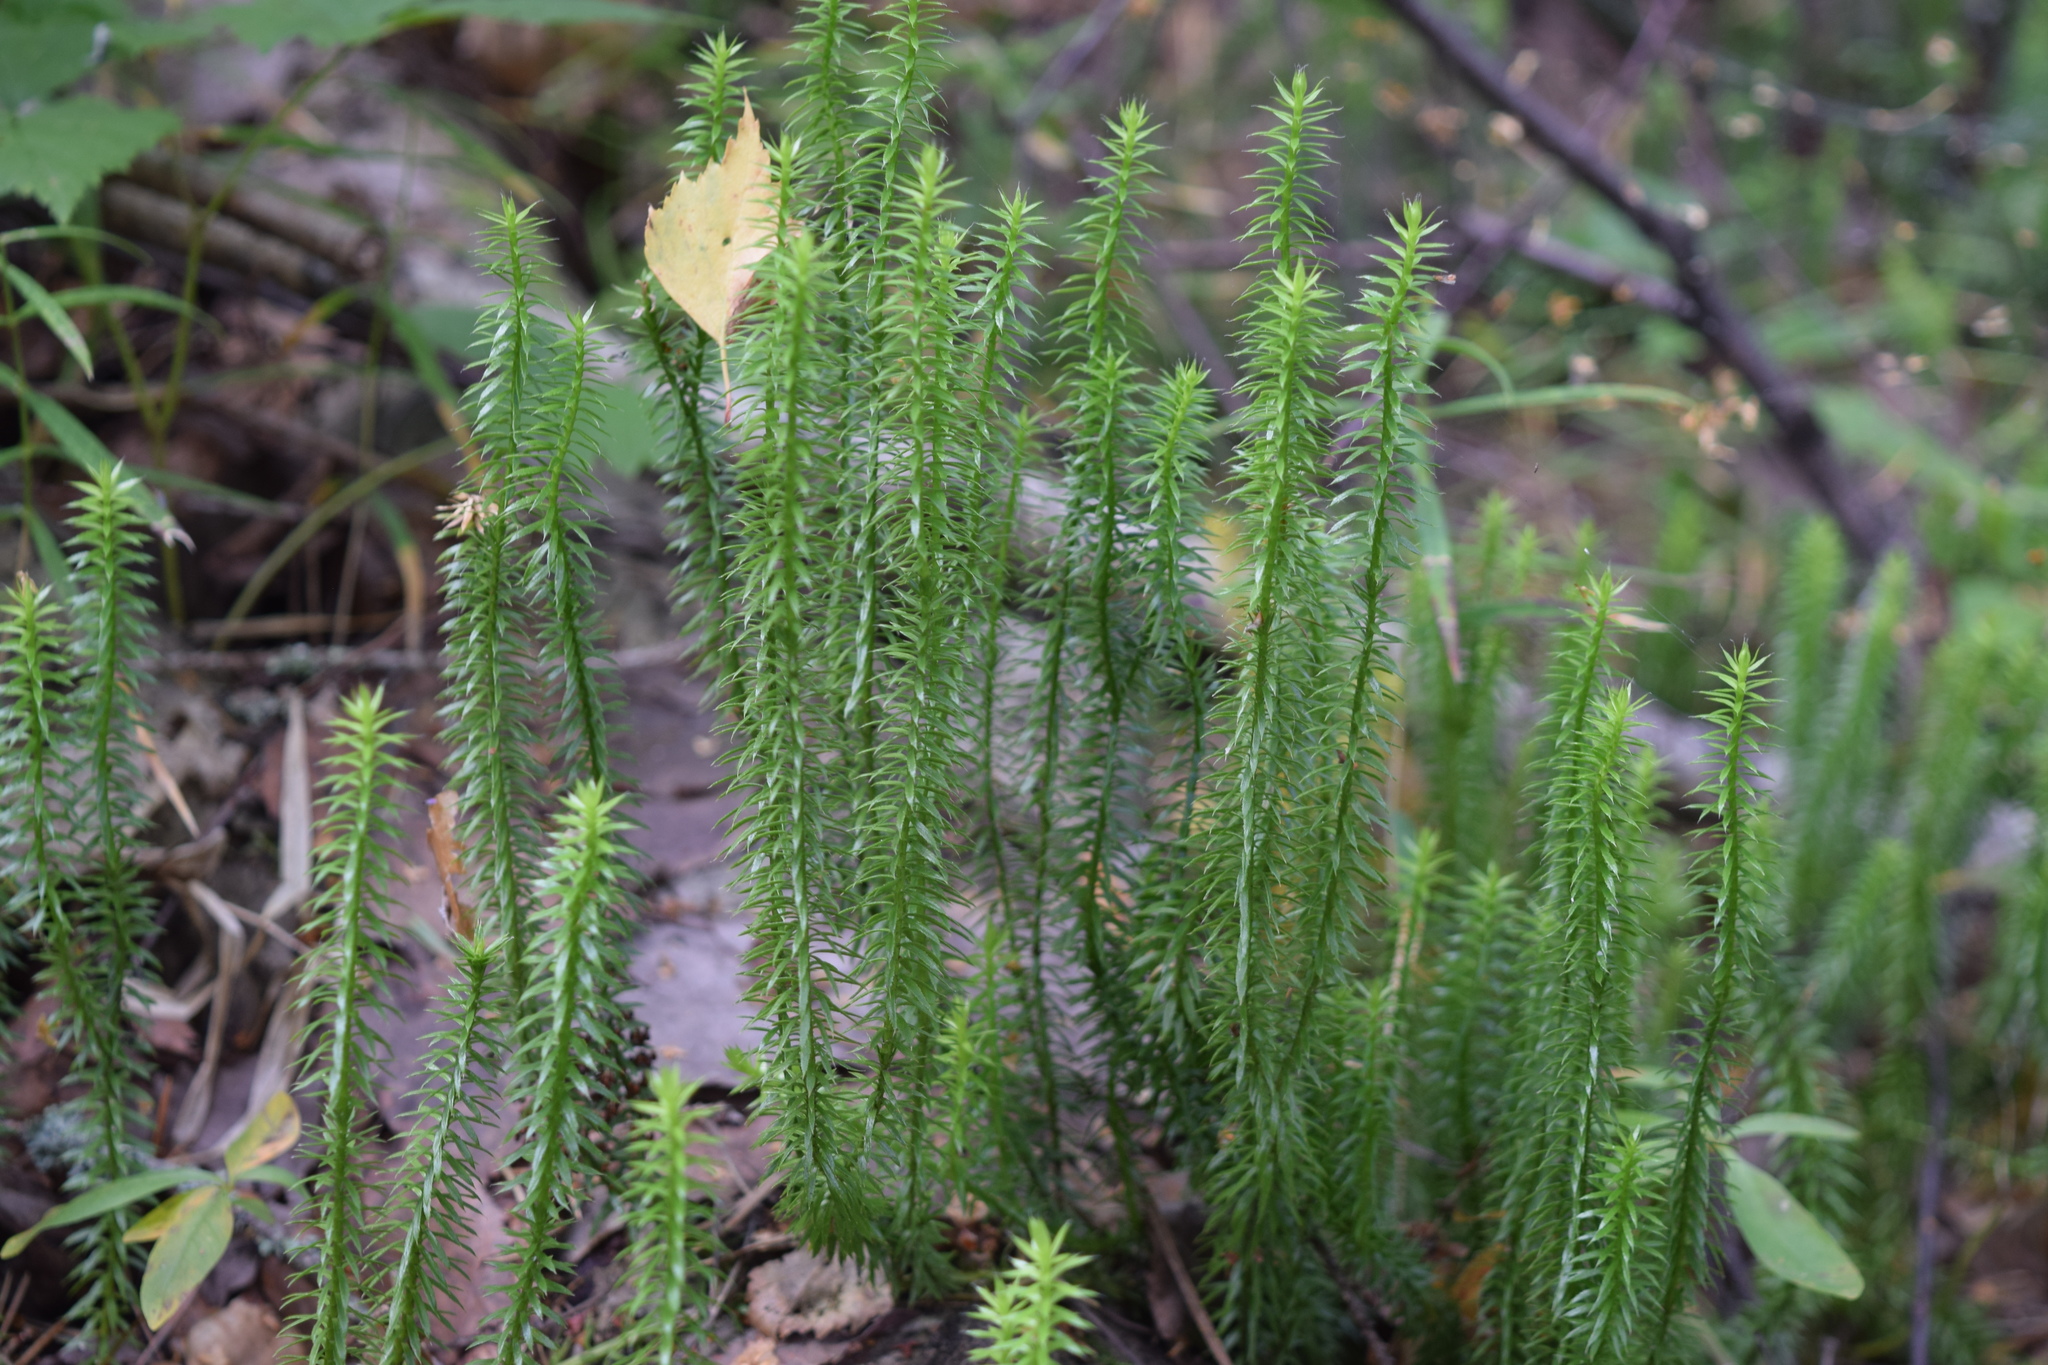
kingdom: Plantae
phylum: Tracheophyta
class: Lycopodiopsida
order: Lycopodiales
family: Lycopodiaceae
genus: Spinulum
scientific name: Spinulum annotinum
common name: Interrupted club-moss
